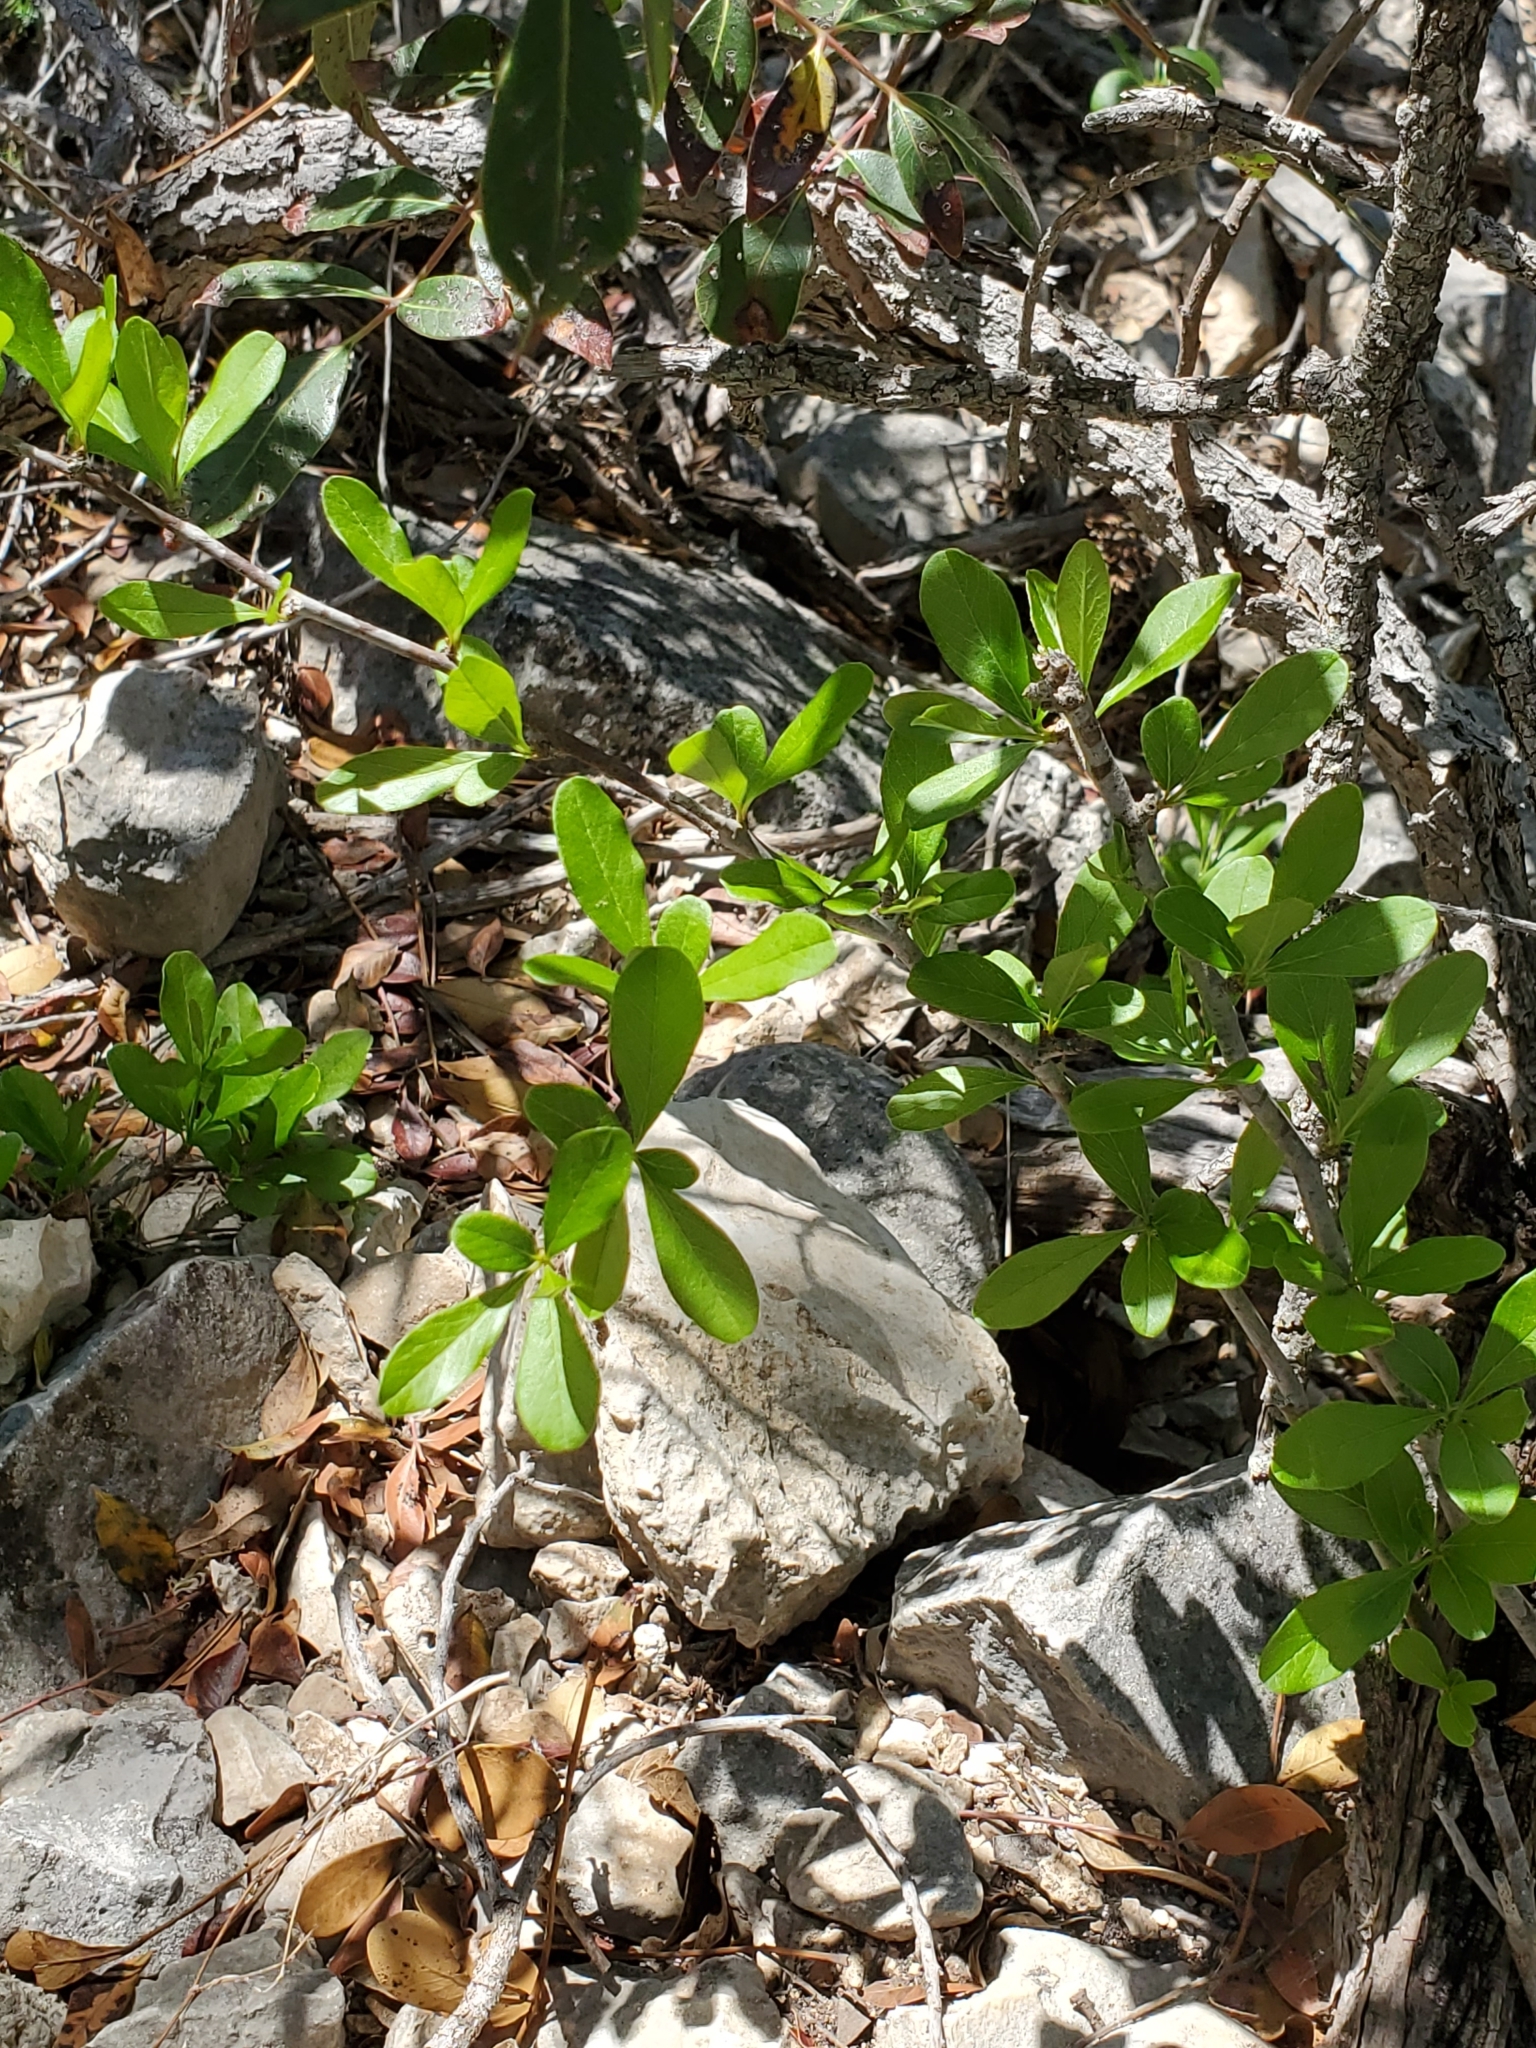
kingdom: Plantae
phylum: Tracheophyta
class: Magnoliopsida
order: Ericales
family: Sapotaceae
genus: Sideroxylon
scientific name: Sideroxylon lanuginosum
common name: Chittamwood
